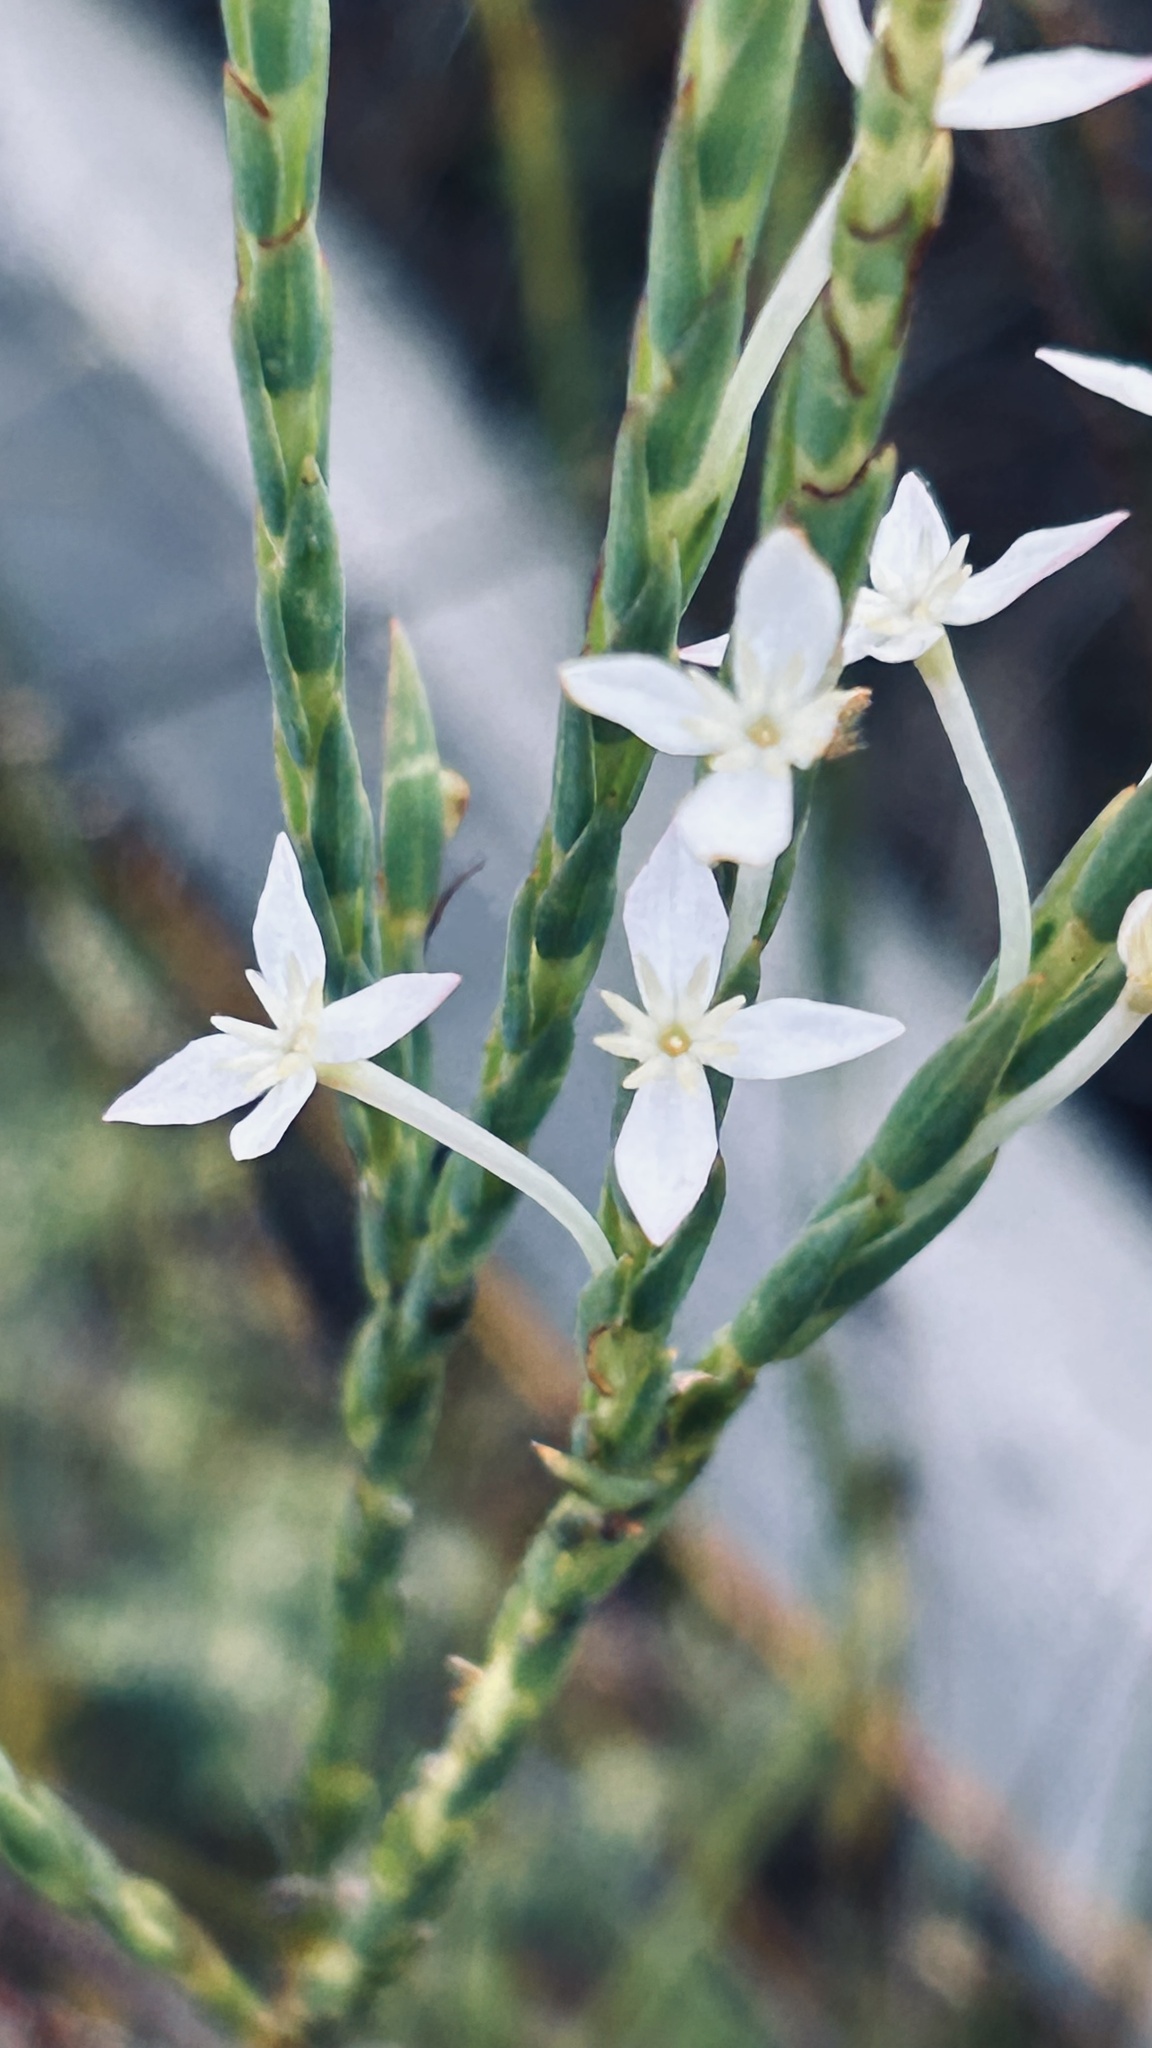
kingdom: Plantae
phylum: Tracheophyta
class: Magnoliopsida
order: Malvales
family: Thymelaeaceae
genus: Struthiola
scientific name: Struthiola myrsinites
